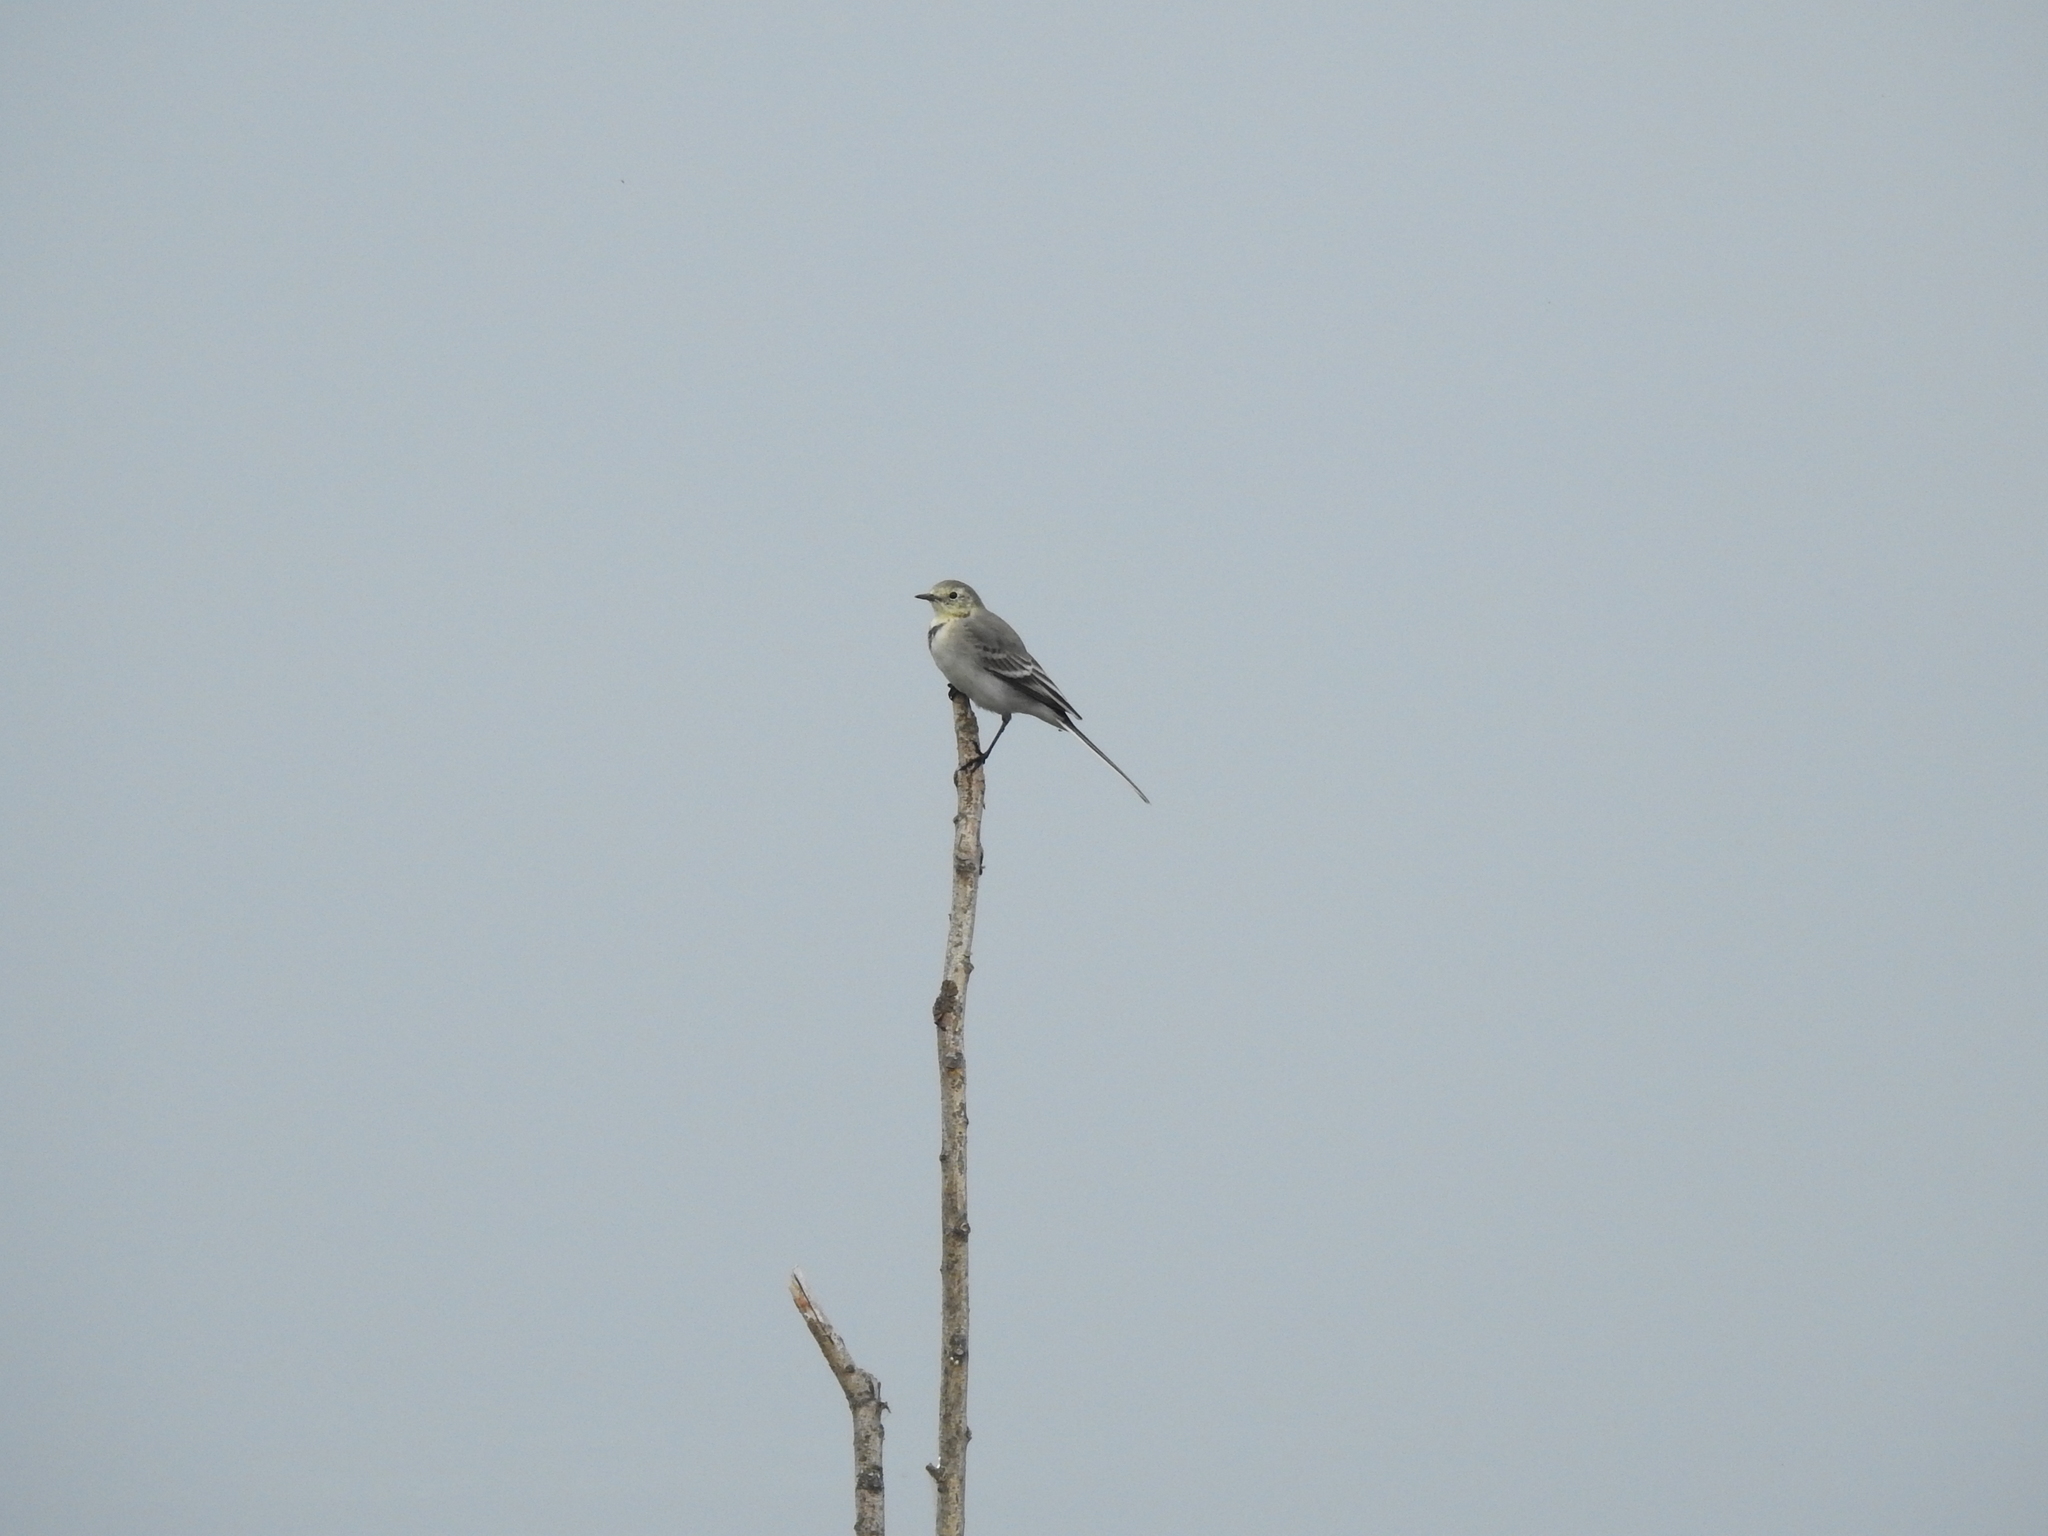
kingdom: Animalia
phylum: Chordata
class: Aves
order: Passeriformes
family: Motacillidae
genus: Motacilla
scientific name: Motacilla alba
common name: White wagtail
